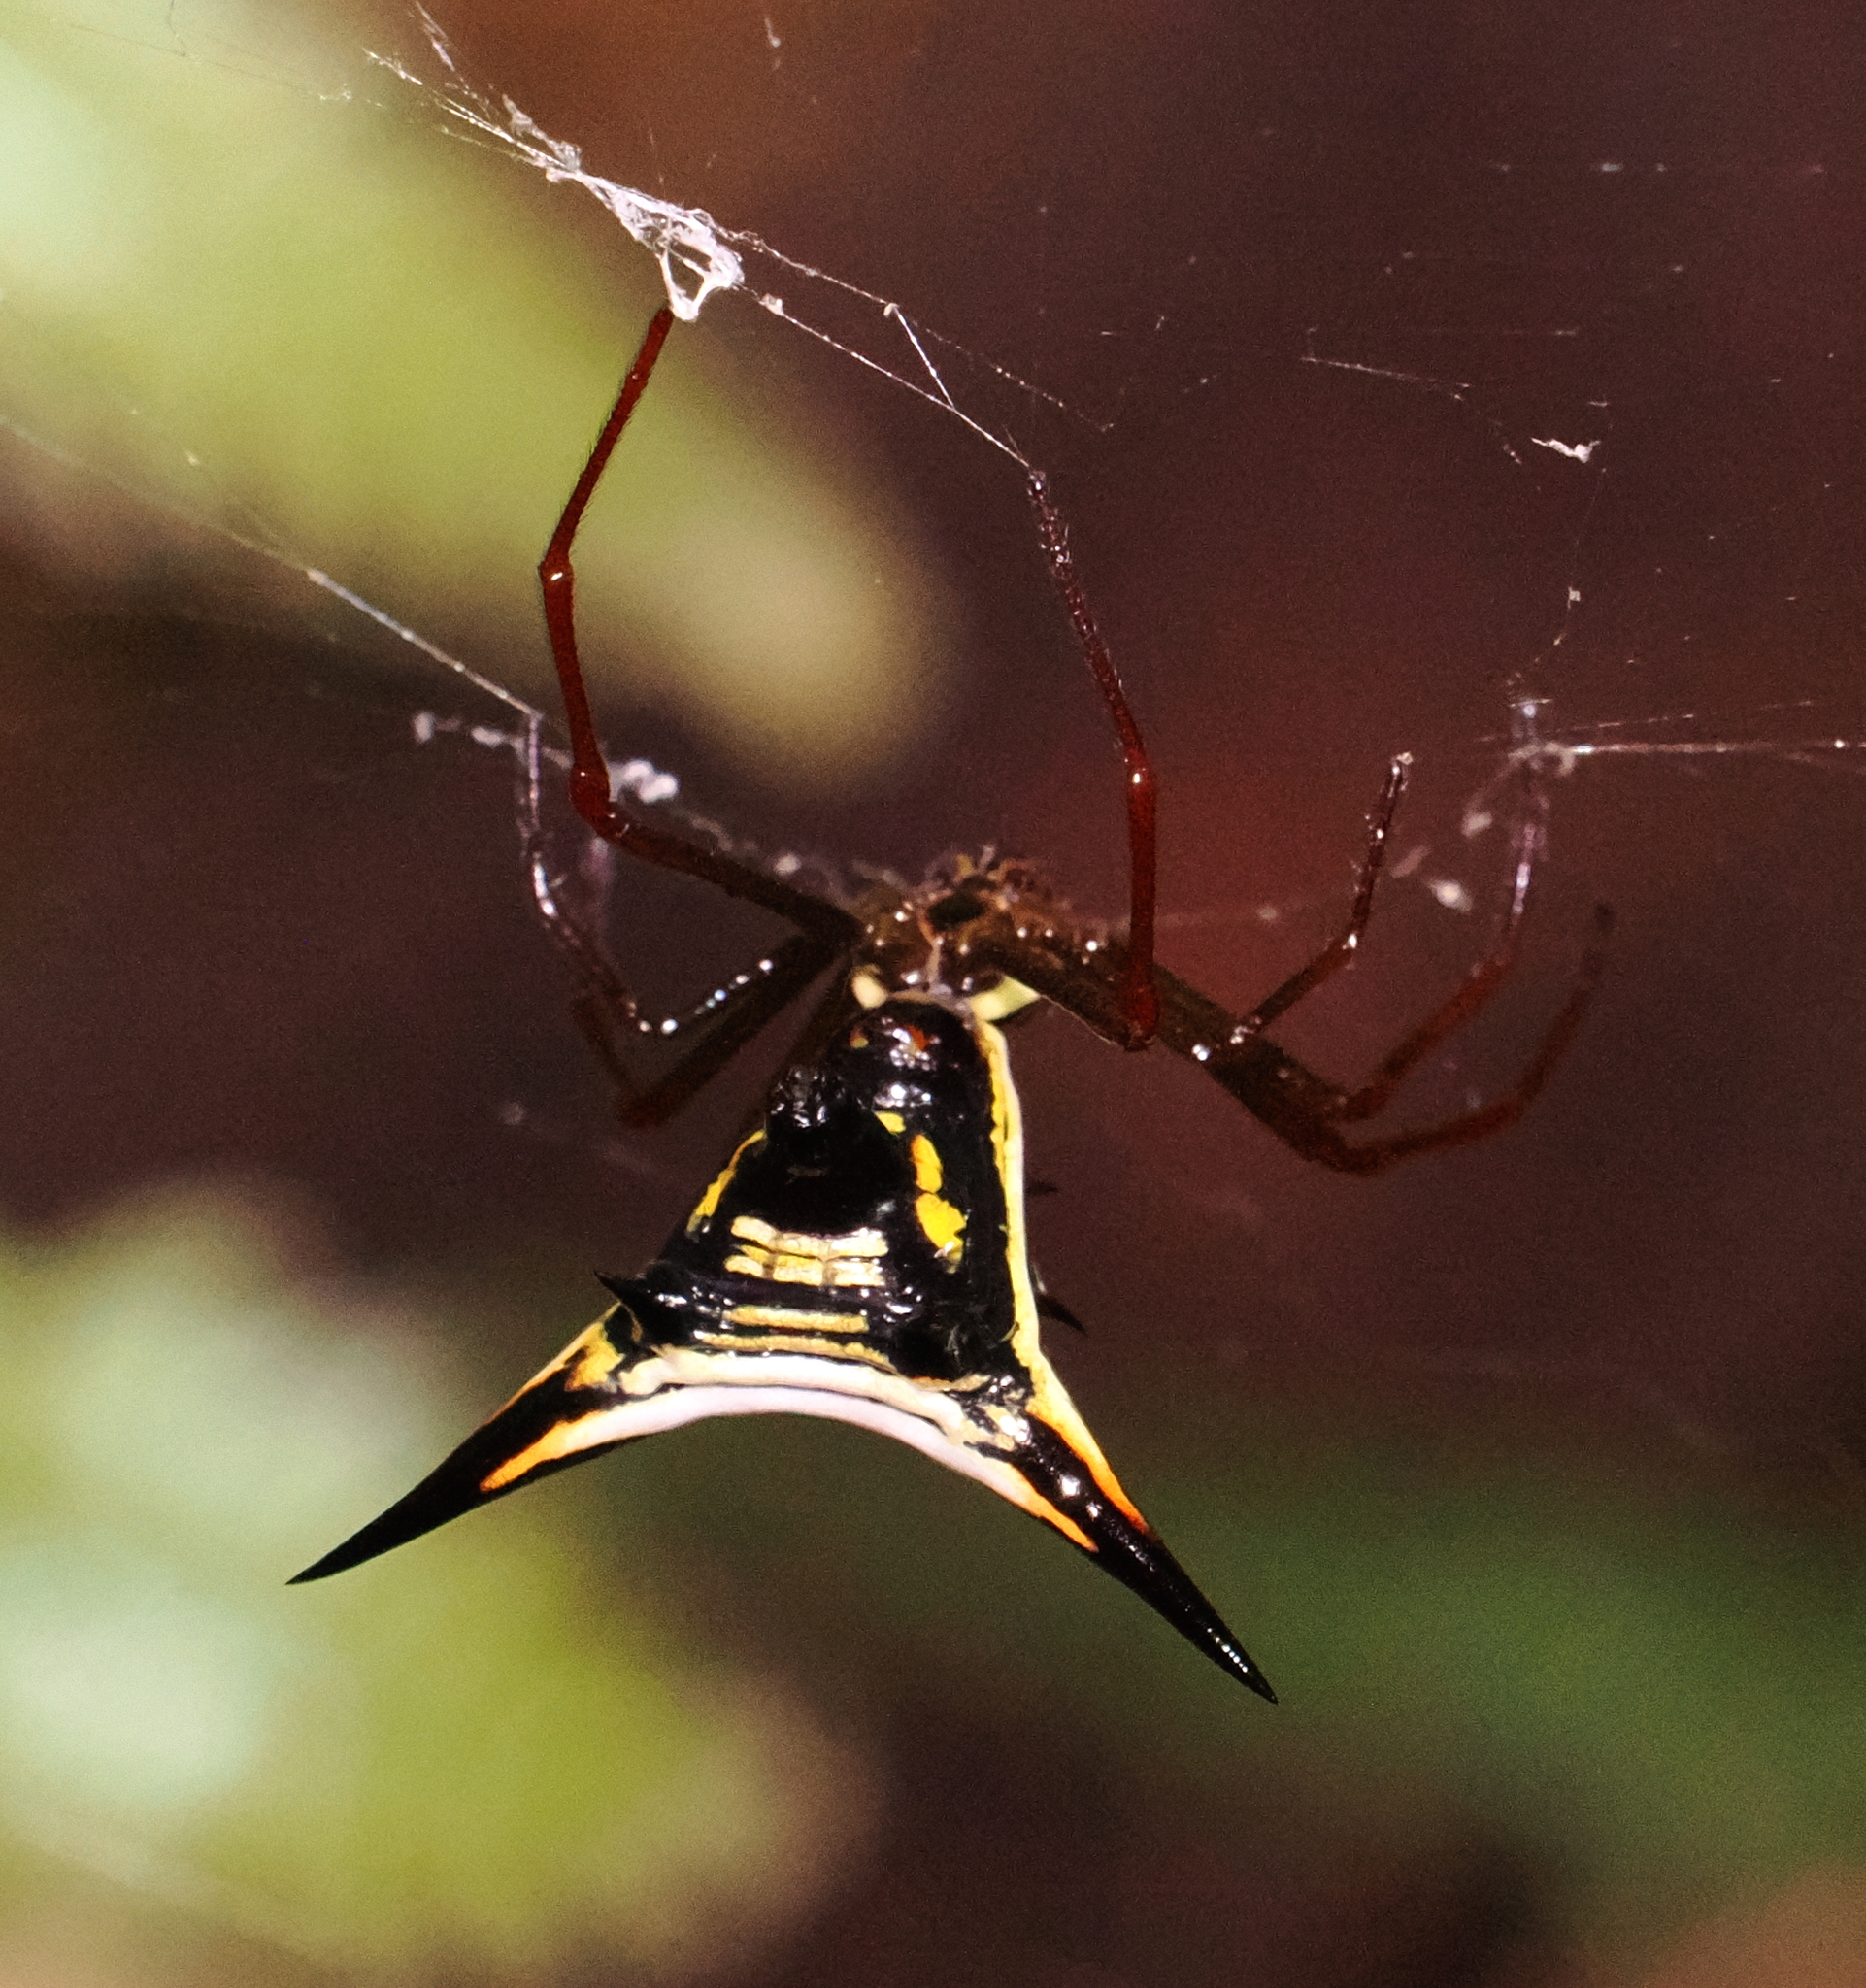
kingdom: Animalia
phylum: Arthropoda
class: Arachnida
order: Araneae
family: Araneidae
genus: Micrathena
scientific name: Micrathena schreibersi
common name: Orb weavers
